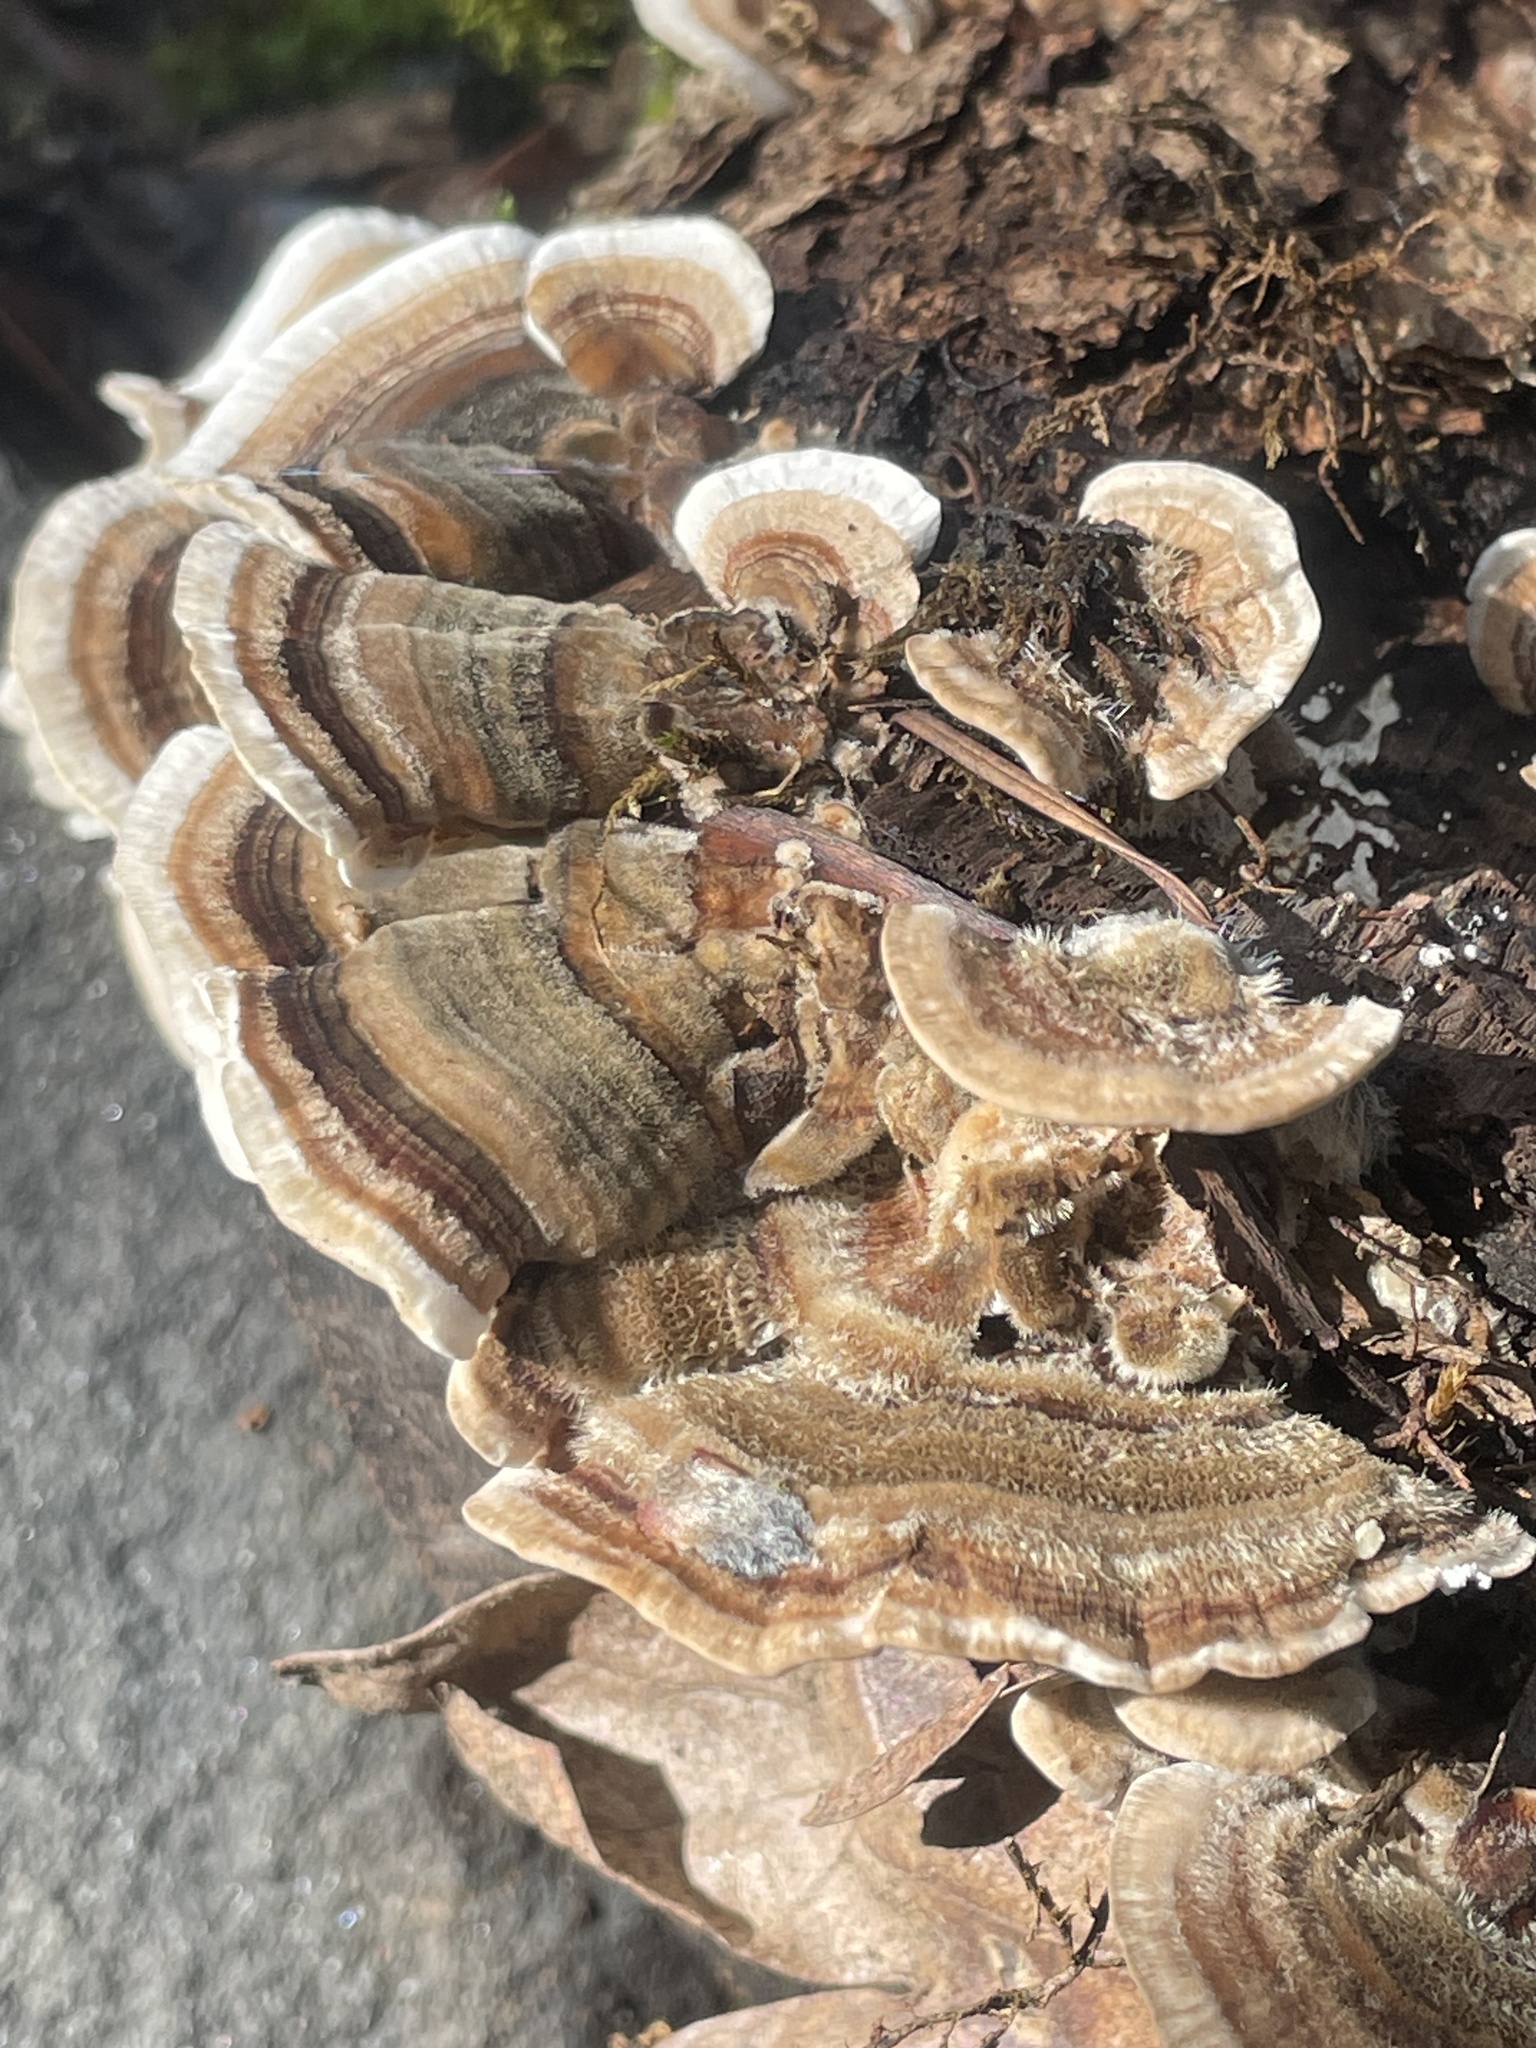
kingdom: Fungi
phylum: Basidiomycota
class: Agaricomycetes
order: Polyporales
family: Polyporaceae
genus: Trametes
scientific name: Trametes versicolor
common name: Turkeytail
